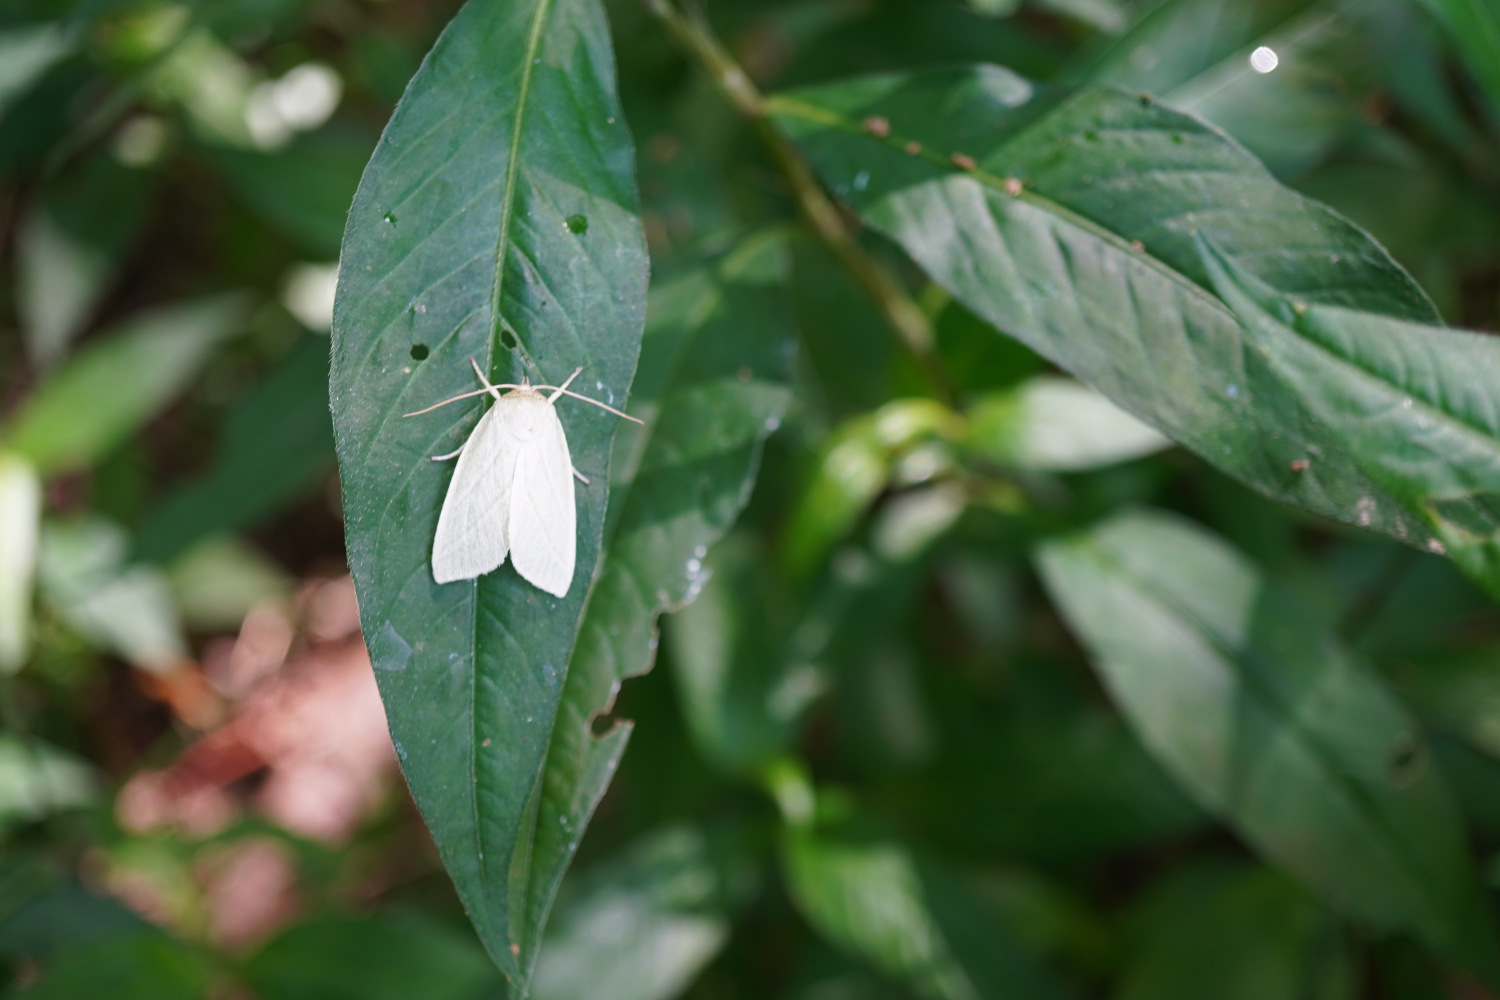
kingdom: Animalia
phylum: Arthropoda
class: Insecta
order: Lepidoptera
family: Nolidae
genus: Pseudoips
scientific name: Pseudoips prasinana
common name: Green silver-lines
